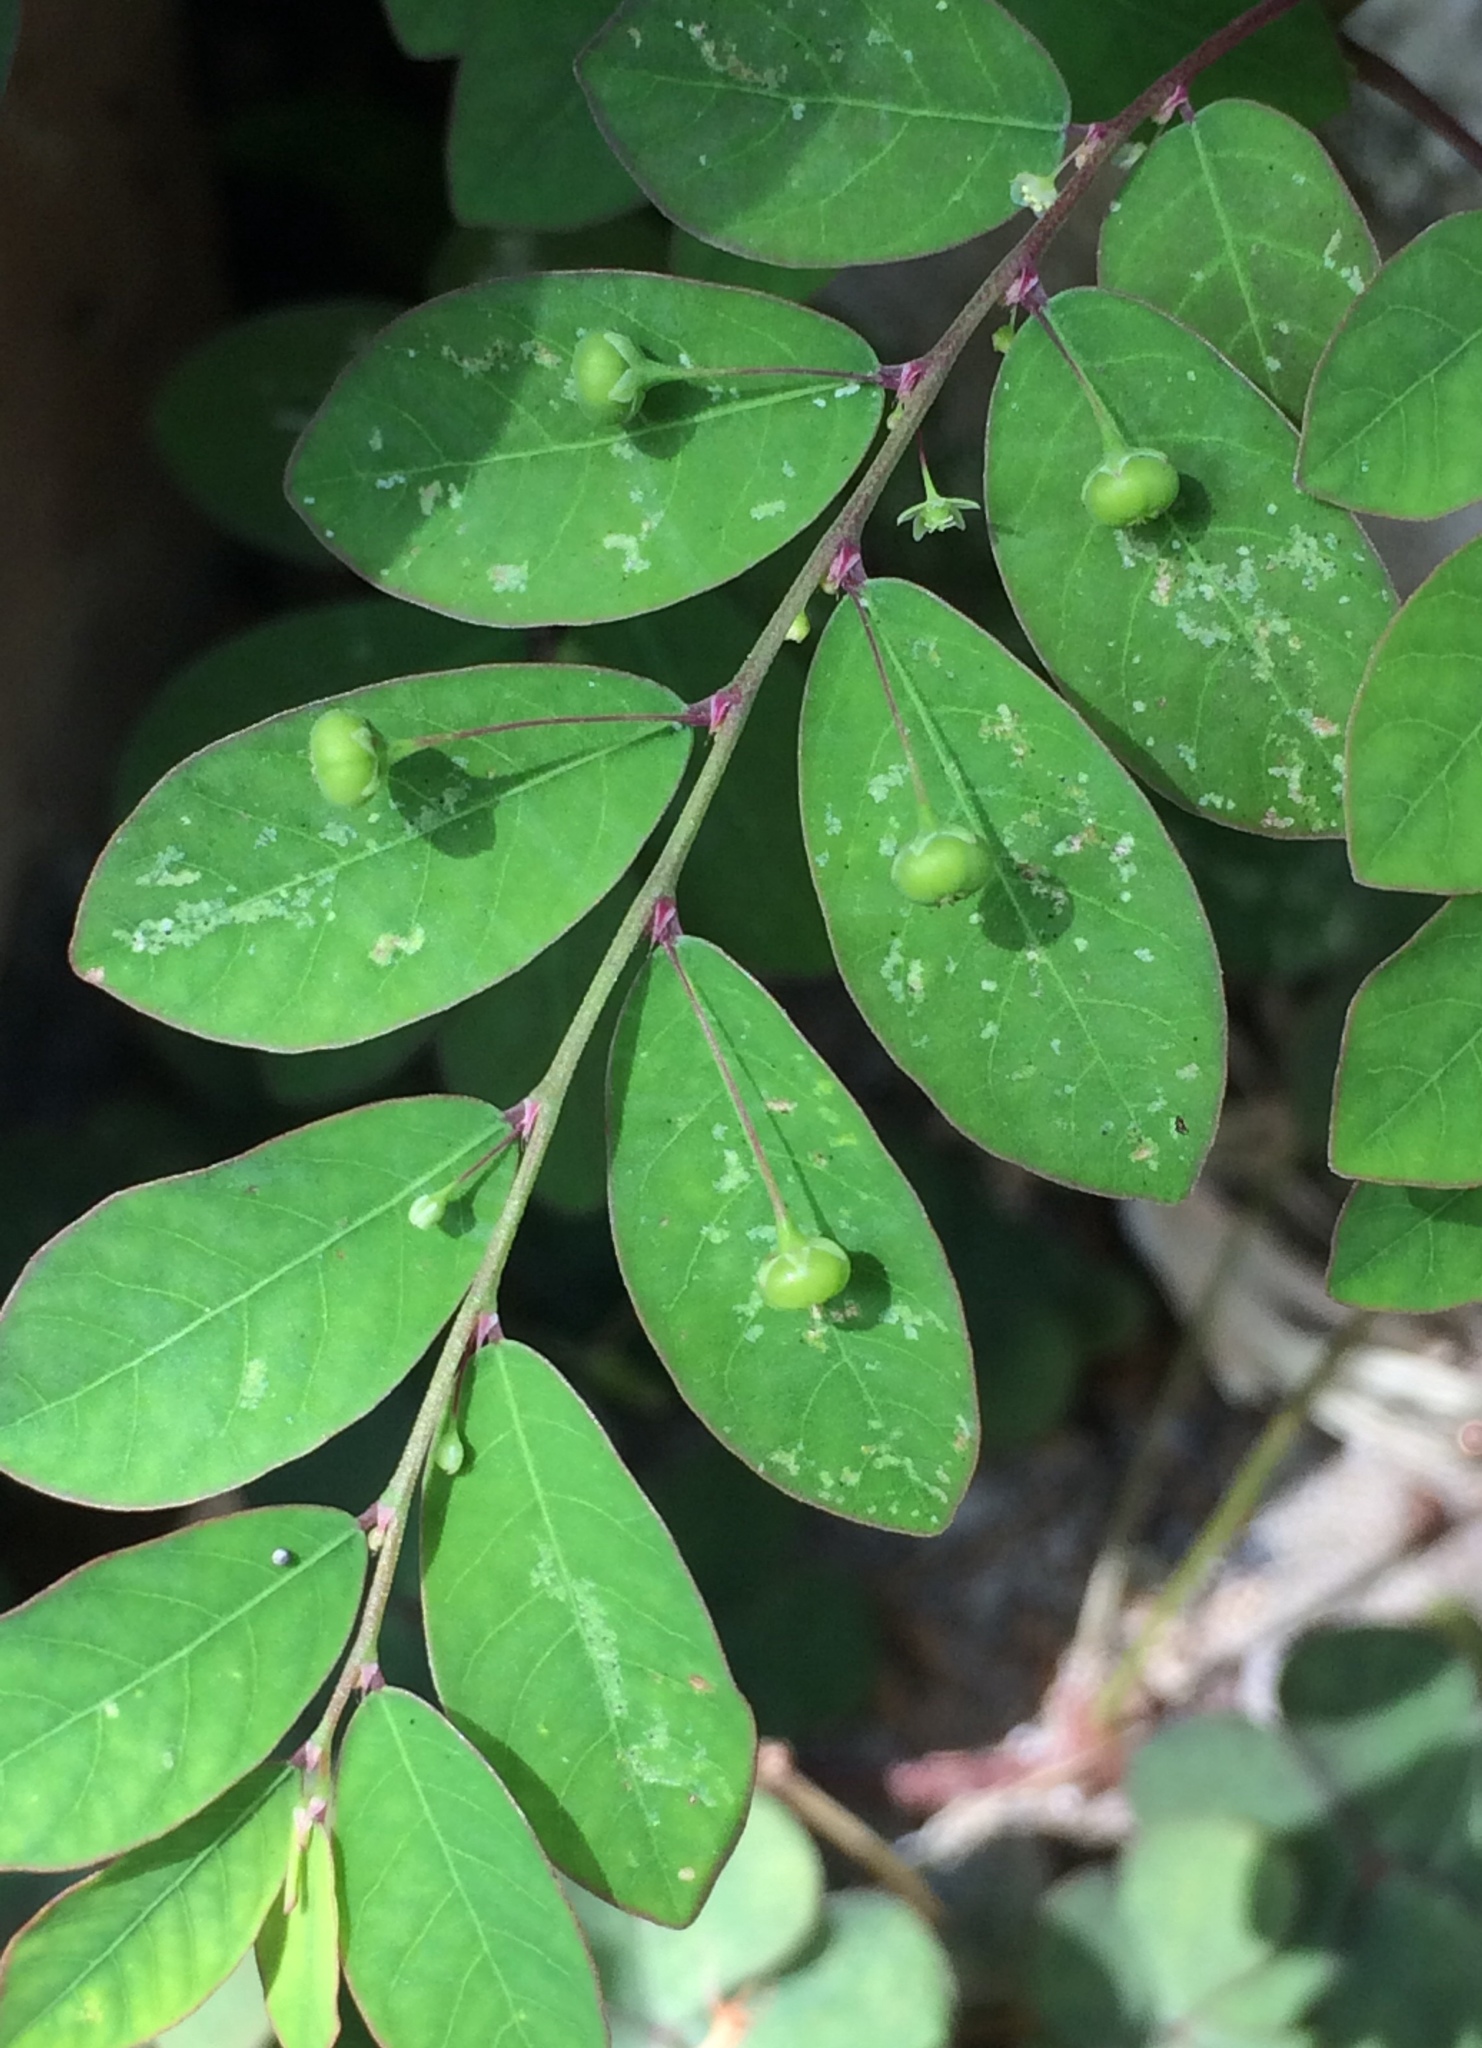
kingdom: Plantae
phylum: Tracheophyta
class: Magnoliopsida
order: Malpighiales
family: Phyllanthaceae
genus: Phyllanthus
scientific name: Phyllanthus tenellus
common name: Mascarene island leaf-flower
